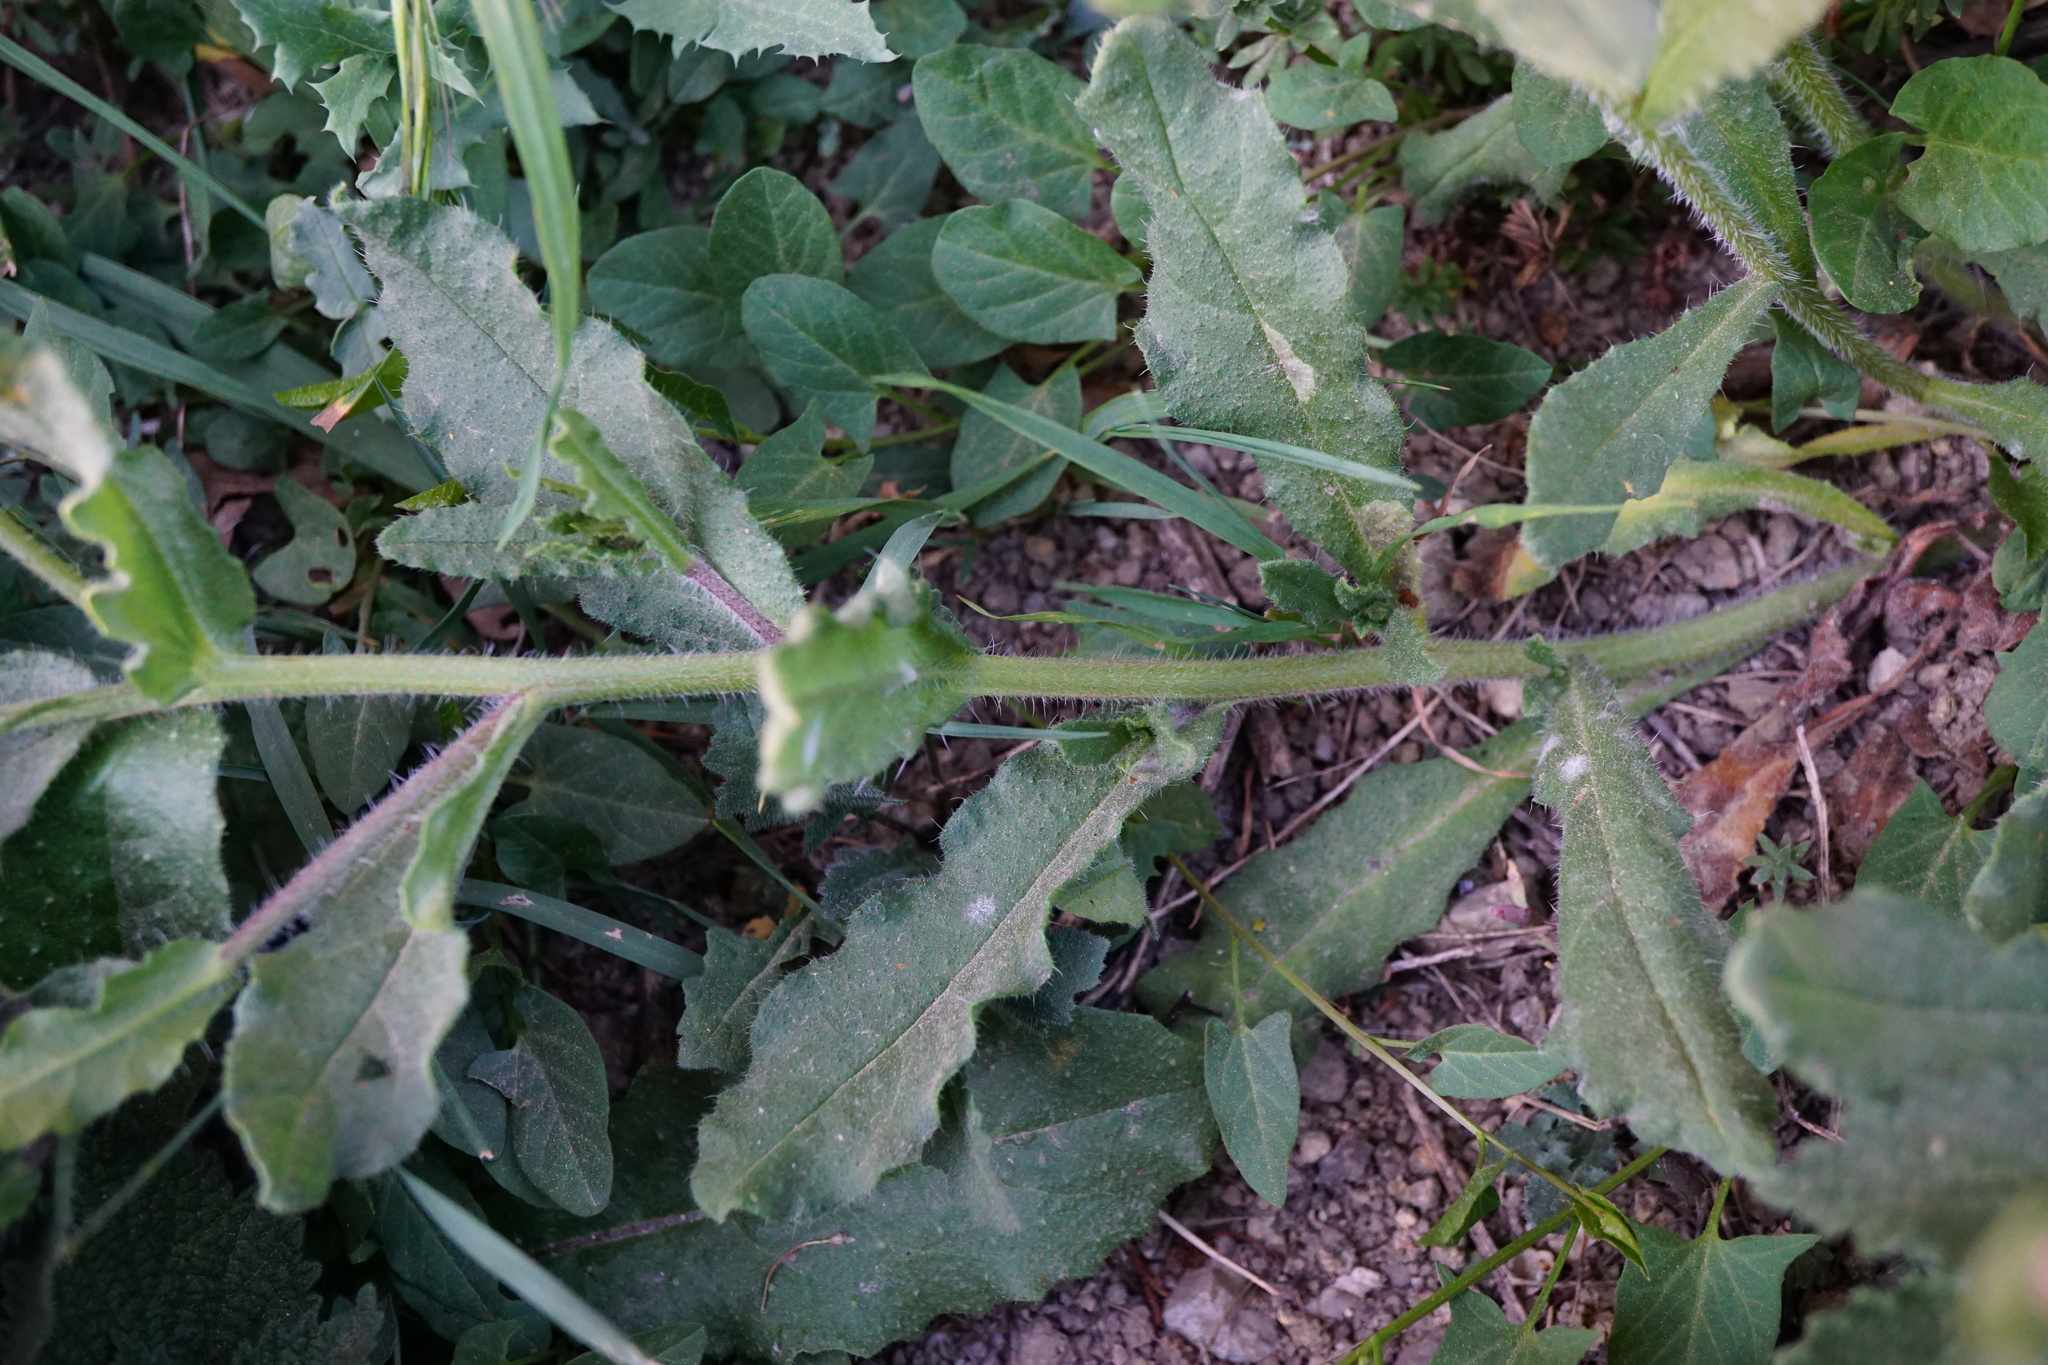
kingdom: Plantae
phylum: Tracheophyta
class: Magnoliopsida
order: Boraginales
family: Boraginaceae
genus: Lycopsis
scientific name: Lycopsis arvensis
